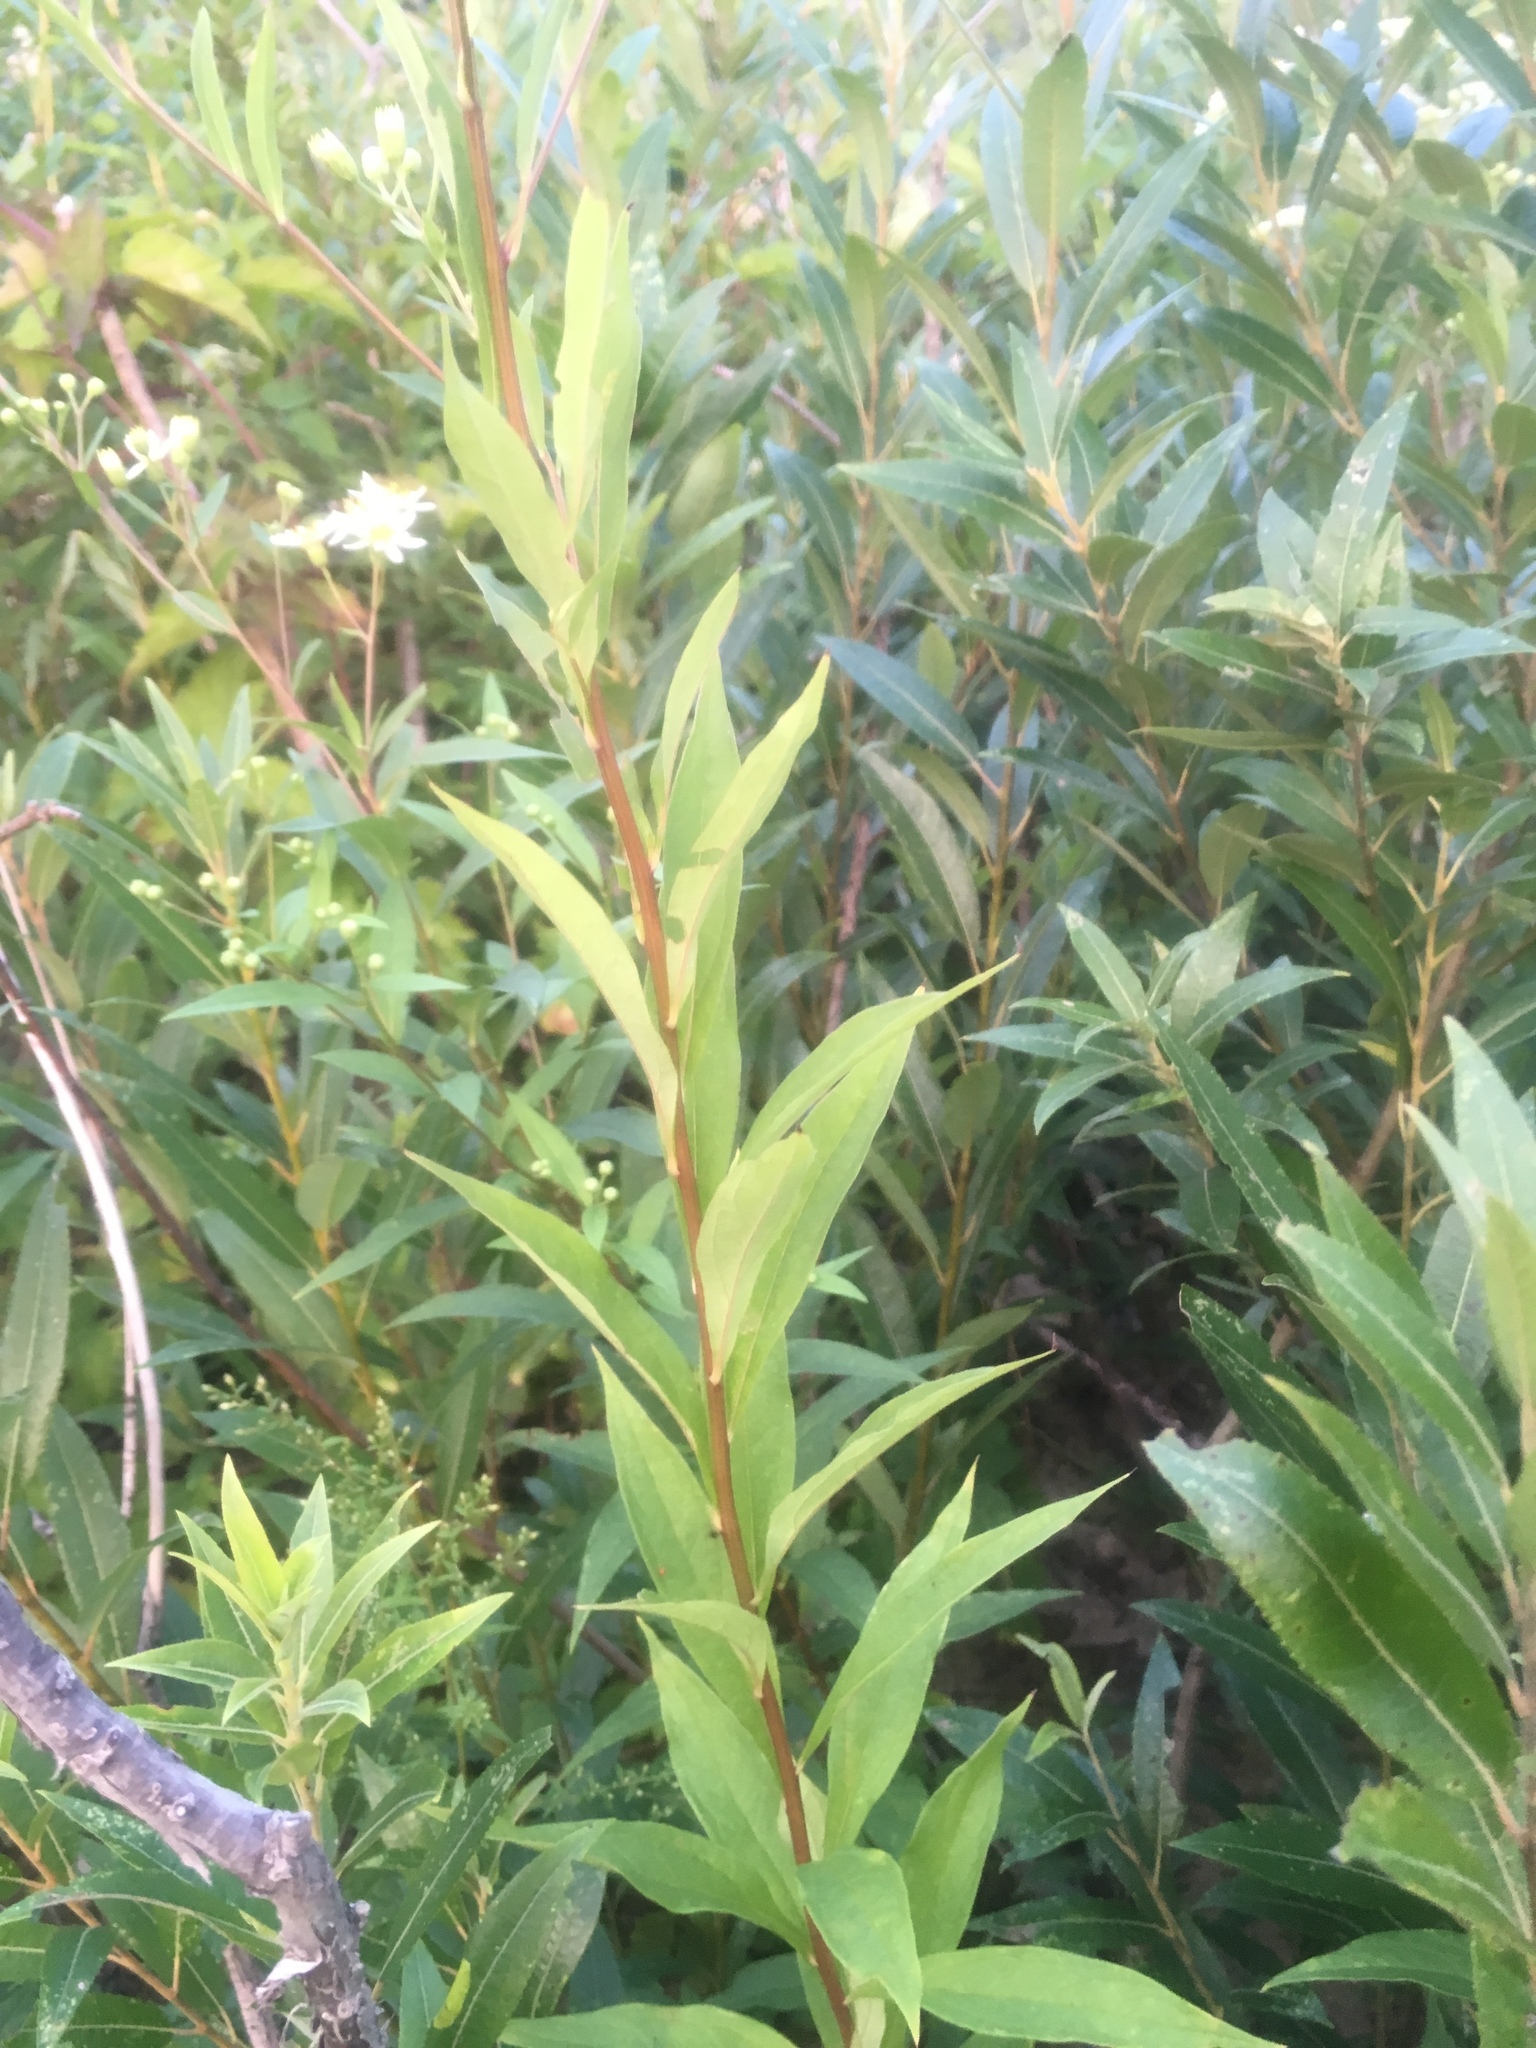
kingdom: Plantae
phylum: Tracheophyta
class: Magnoliopsida
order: Asterales
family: Asteraceae
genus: Doellingeria
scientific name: Doellingeria umbellata
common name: Flat-top white aster
